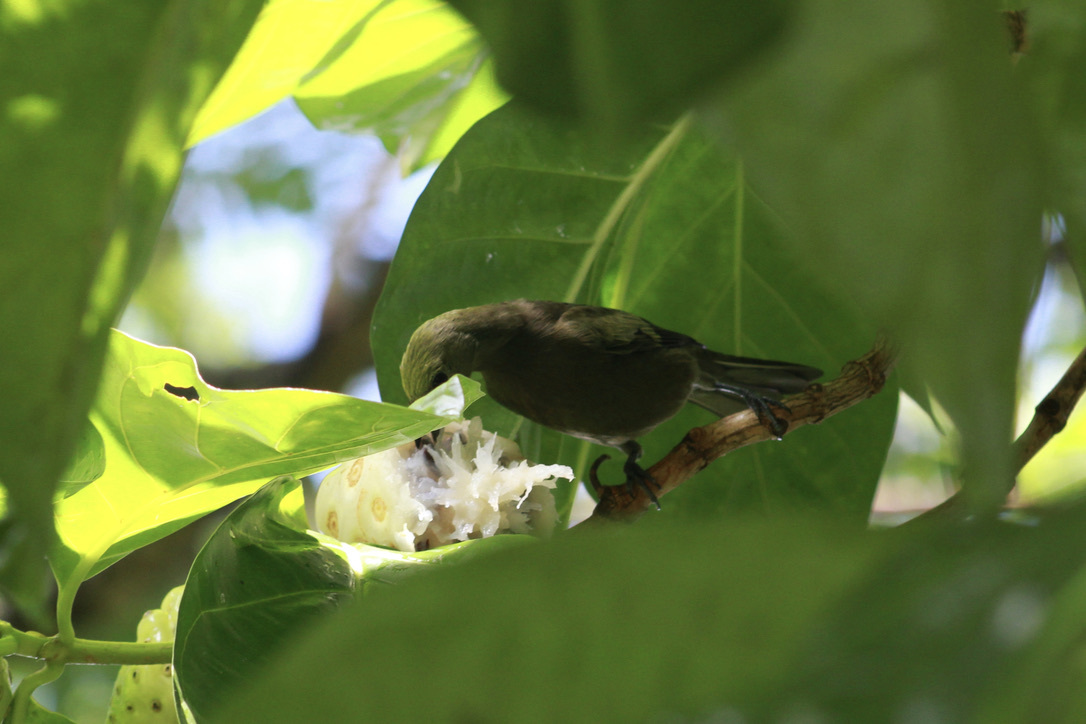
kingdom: Animalia
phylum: Chordata
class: Aves
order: Passeriformes
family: Thraupidae
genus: Thraupis
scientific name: Thraupis palmarum
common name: Palm tanager
